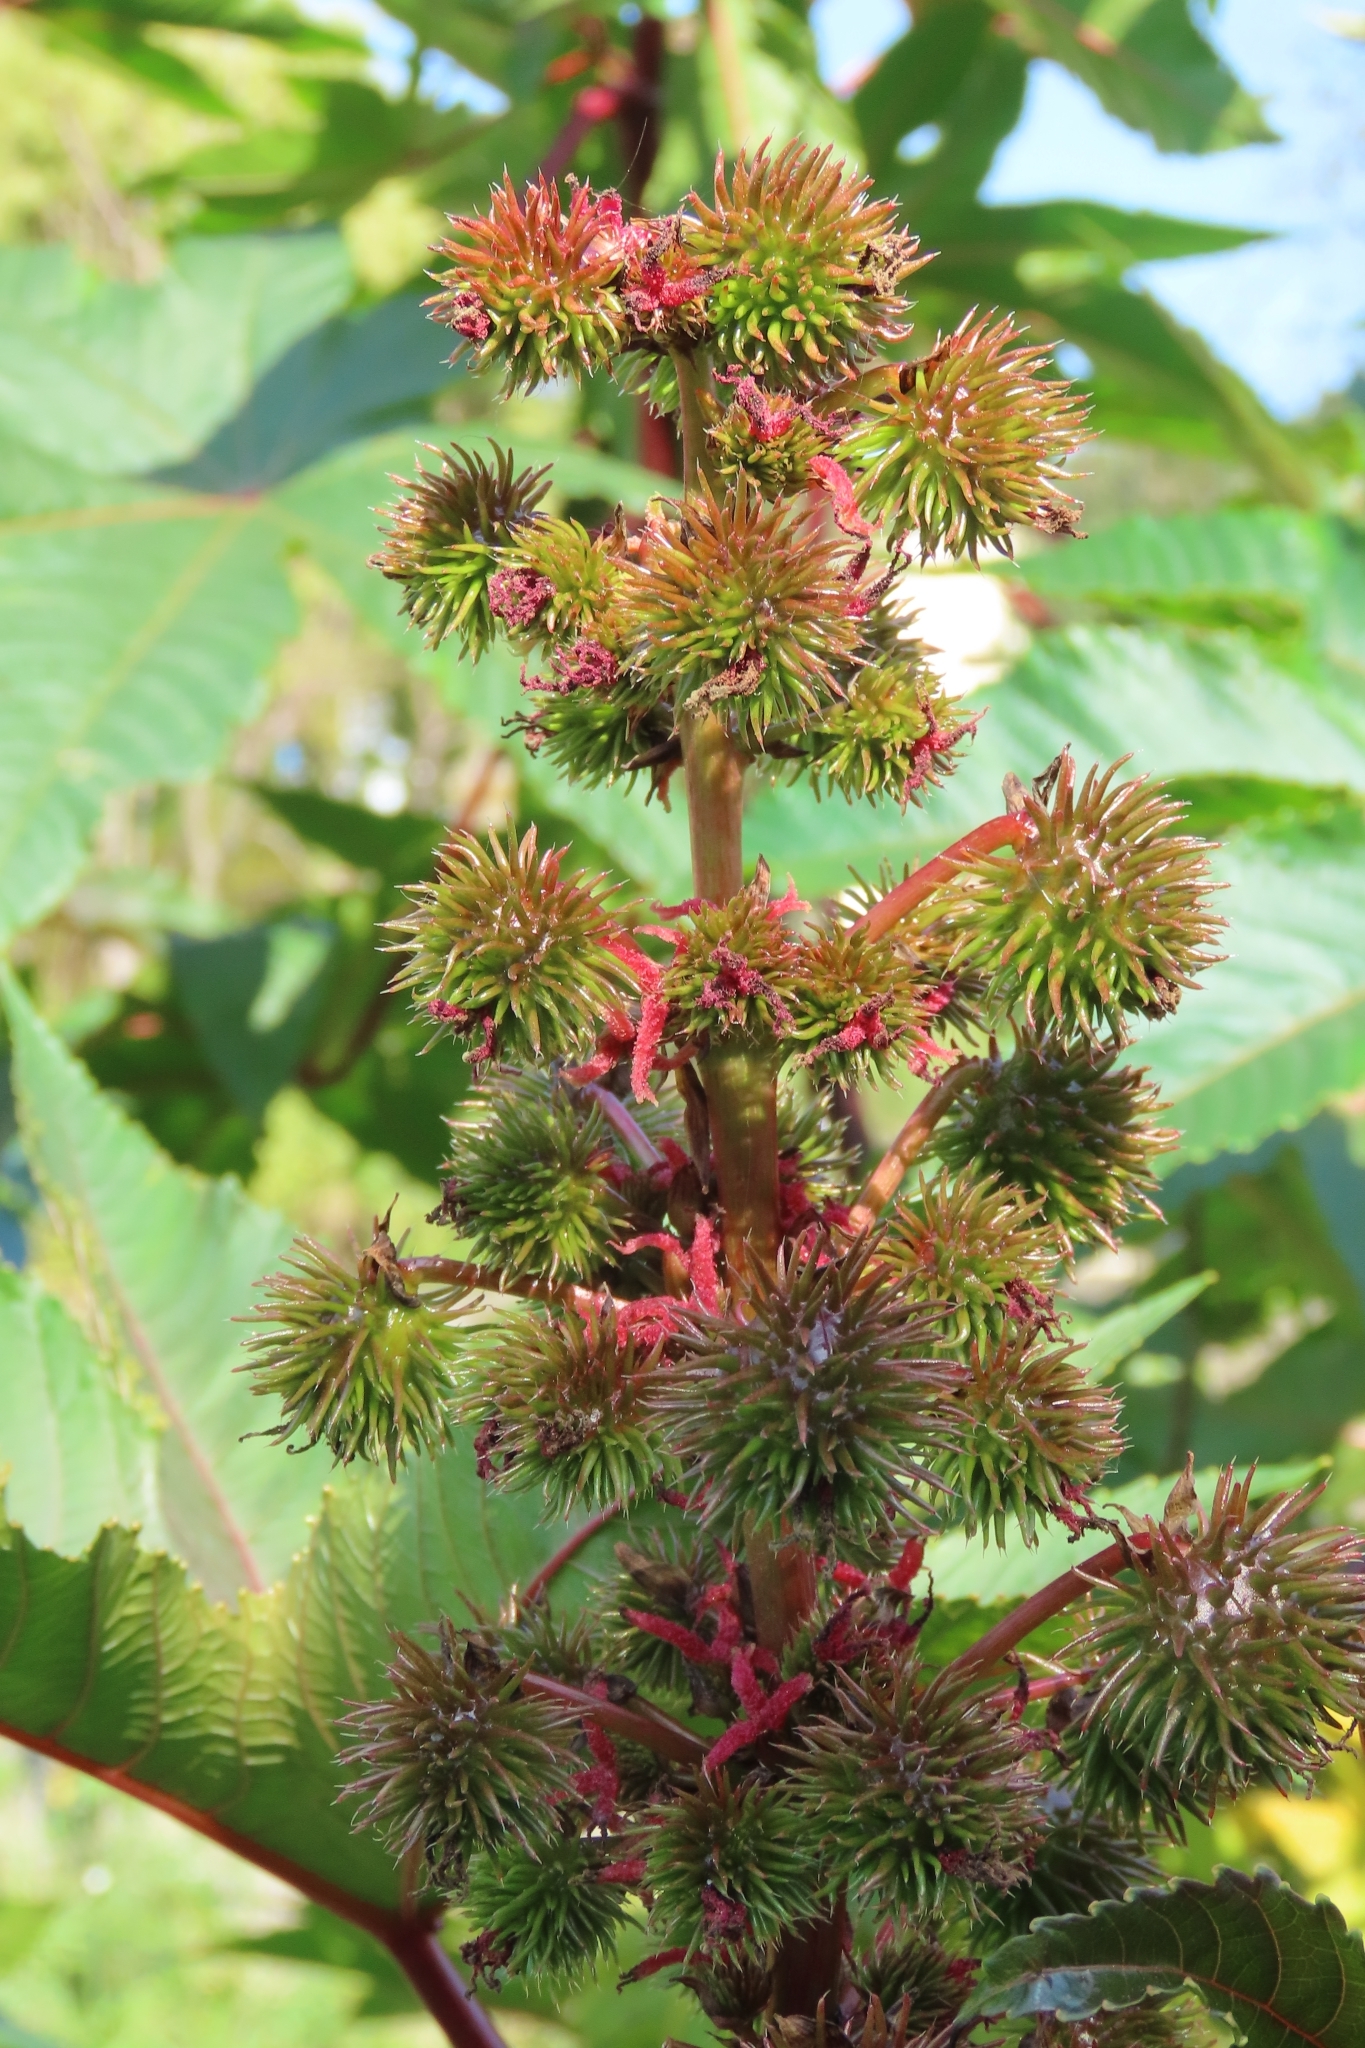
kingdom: Plantae
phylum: Tracheophyta
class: Magnoliopsida
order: Malpighiales
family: Euphorbiaceae
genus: Ricinus
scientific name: Ricinus communis
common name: Castor-oil-plant
